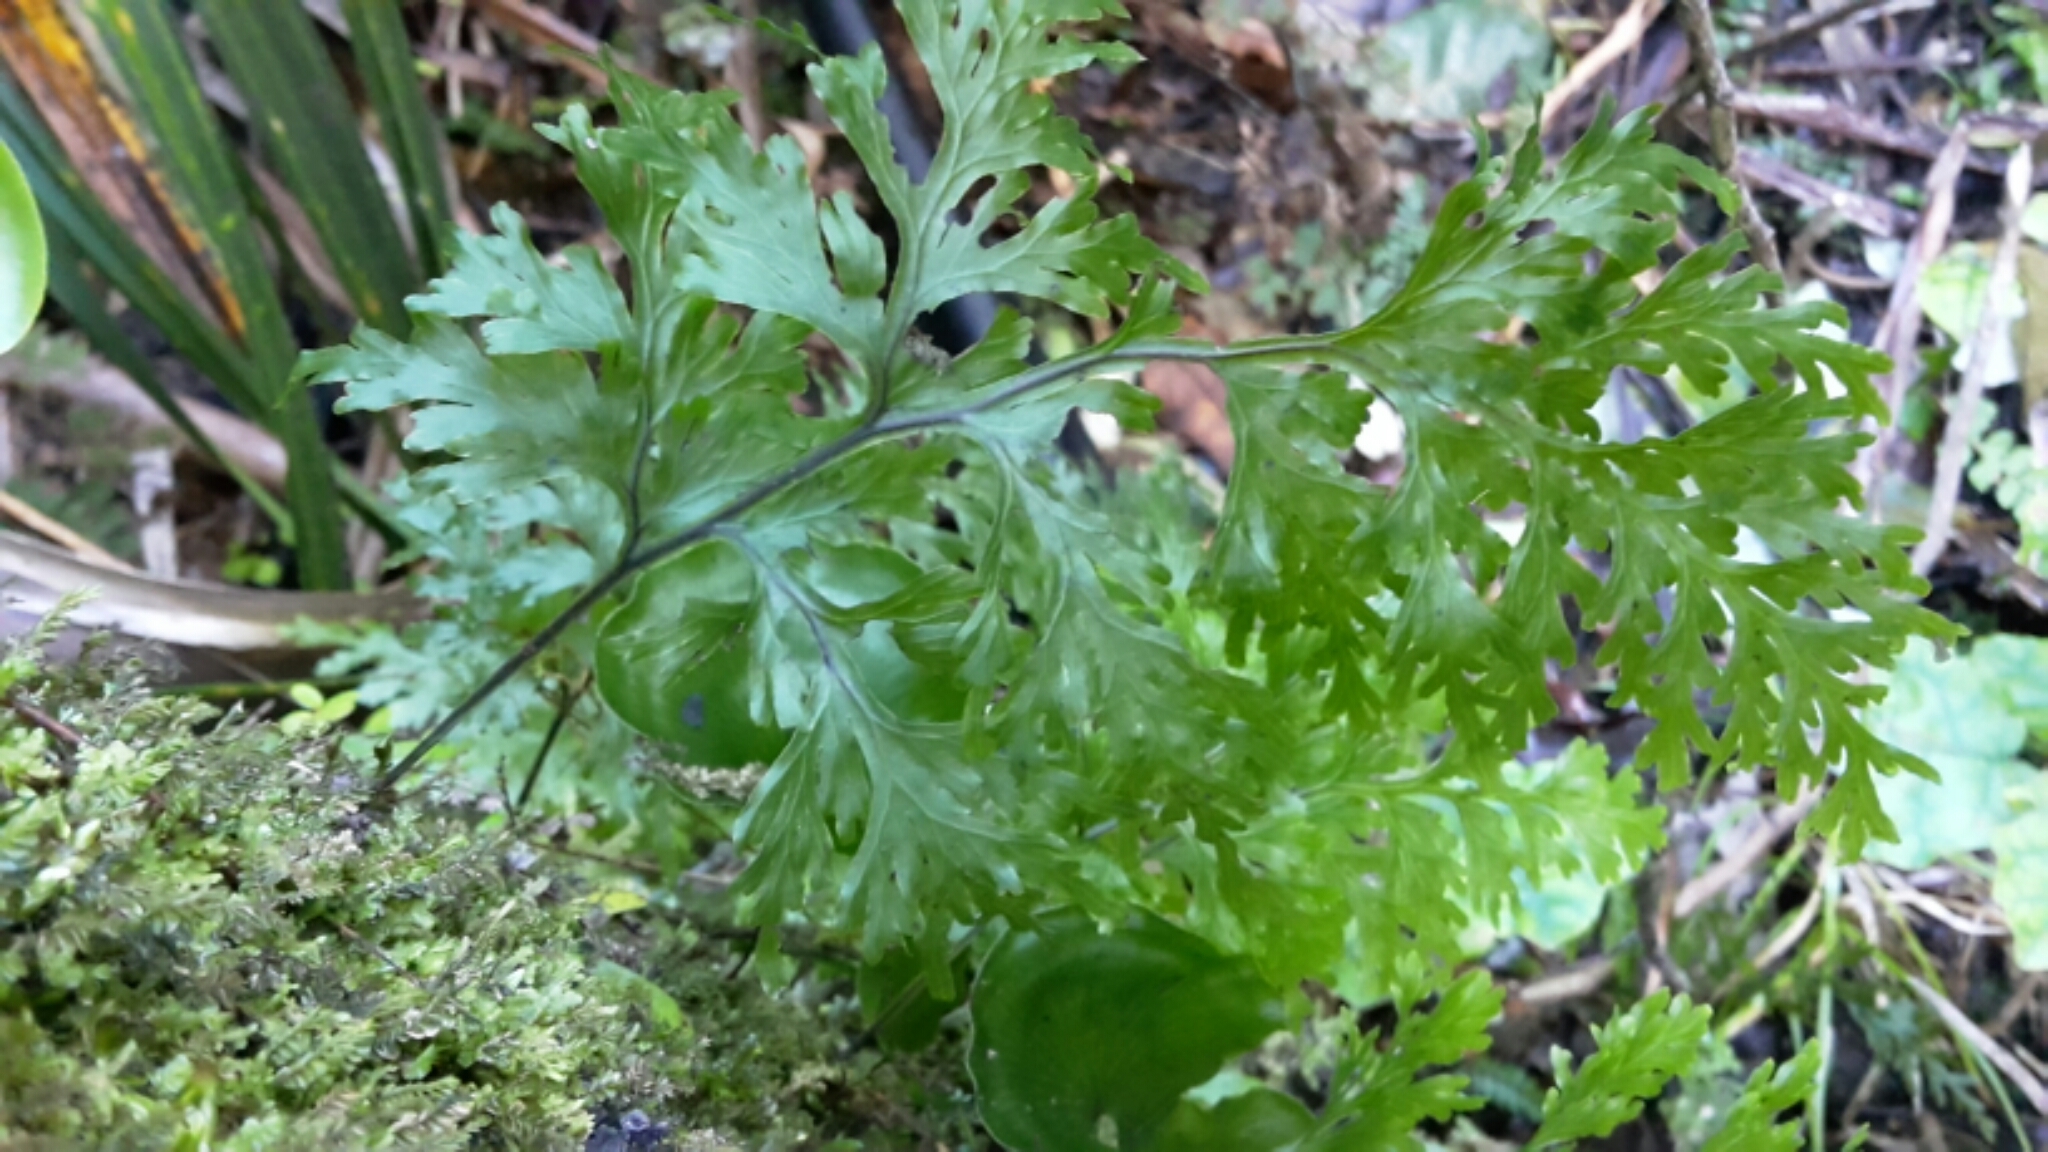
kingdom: Plantae
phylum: Tracheophyta
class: Polypodiopsida
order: Hymenophyllales
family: Hymenophyllaceae
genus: Hymenophyllum
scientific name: Hymenophyllum dilatatum
